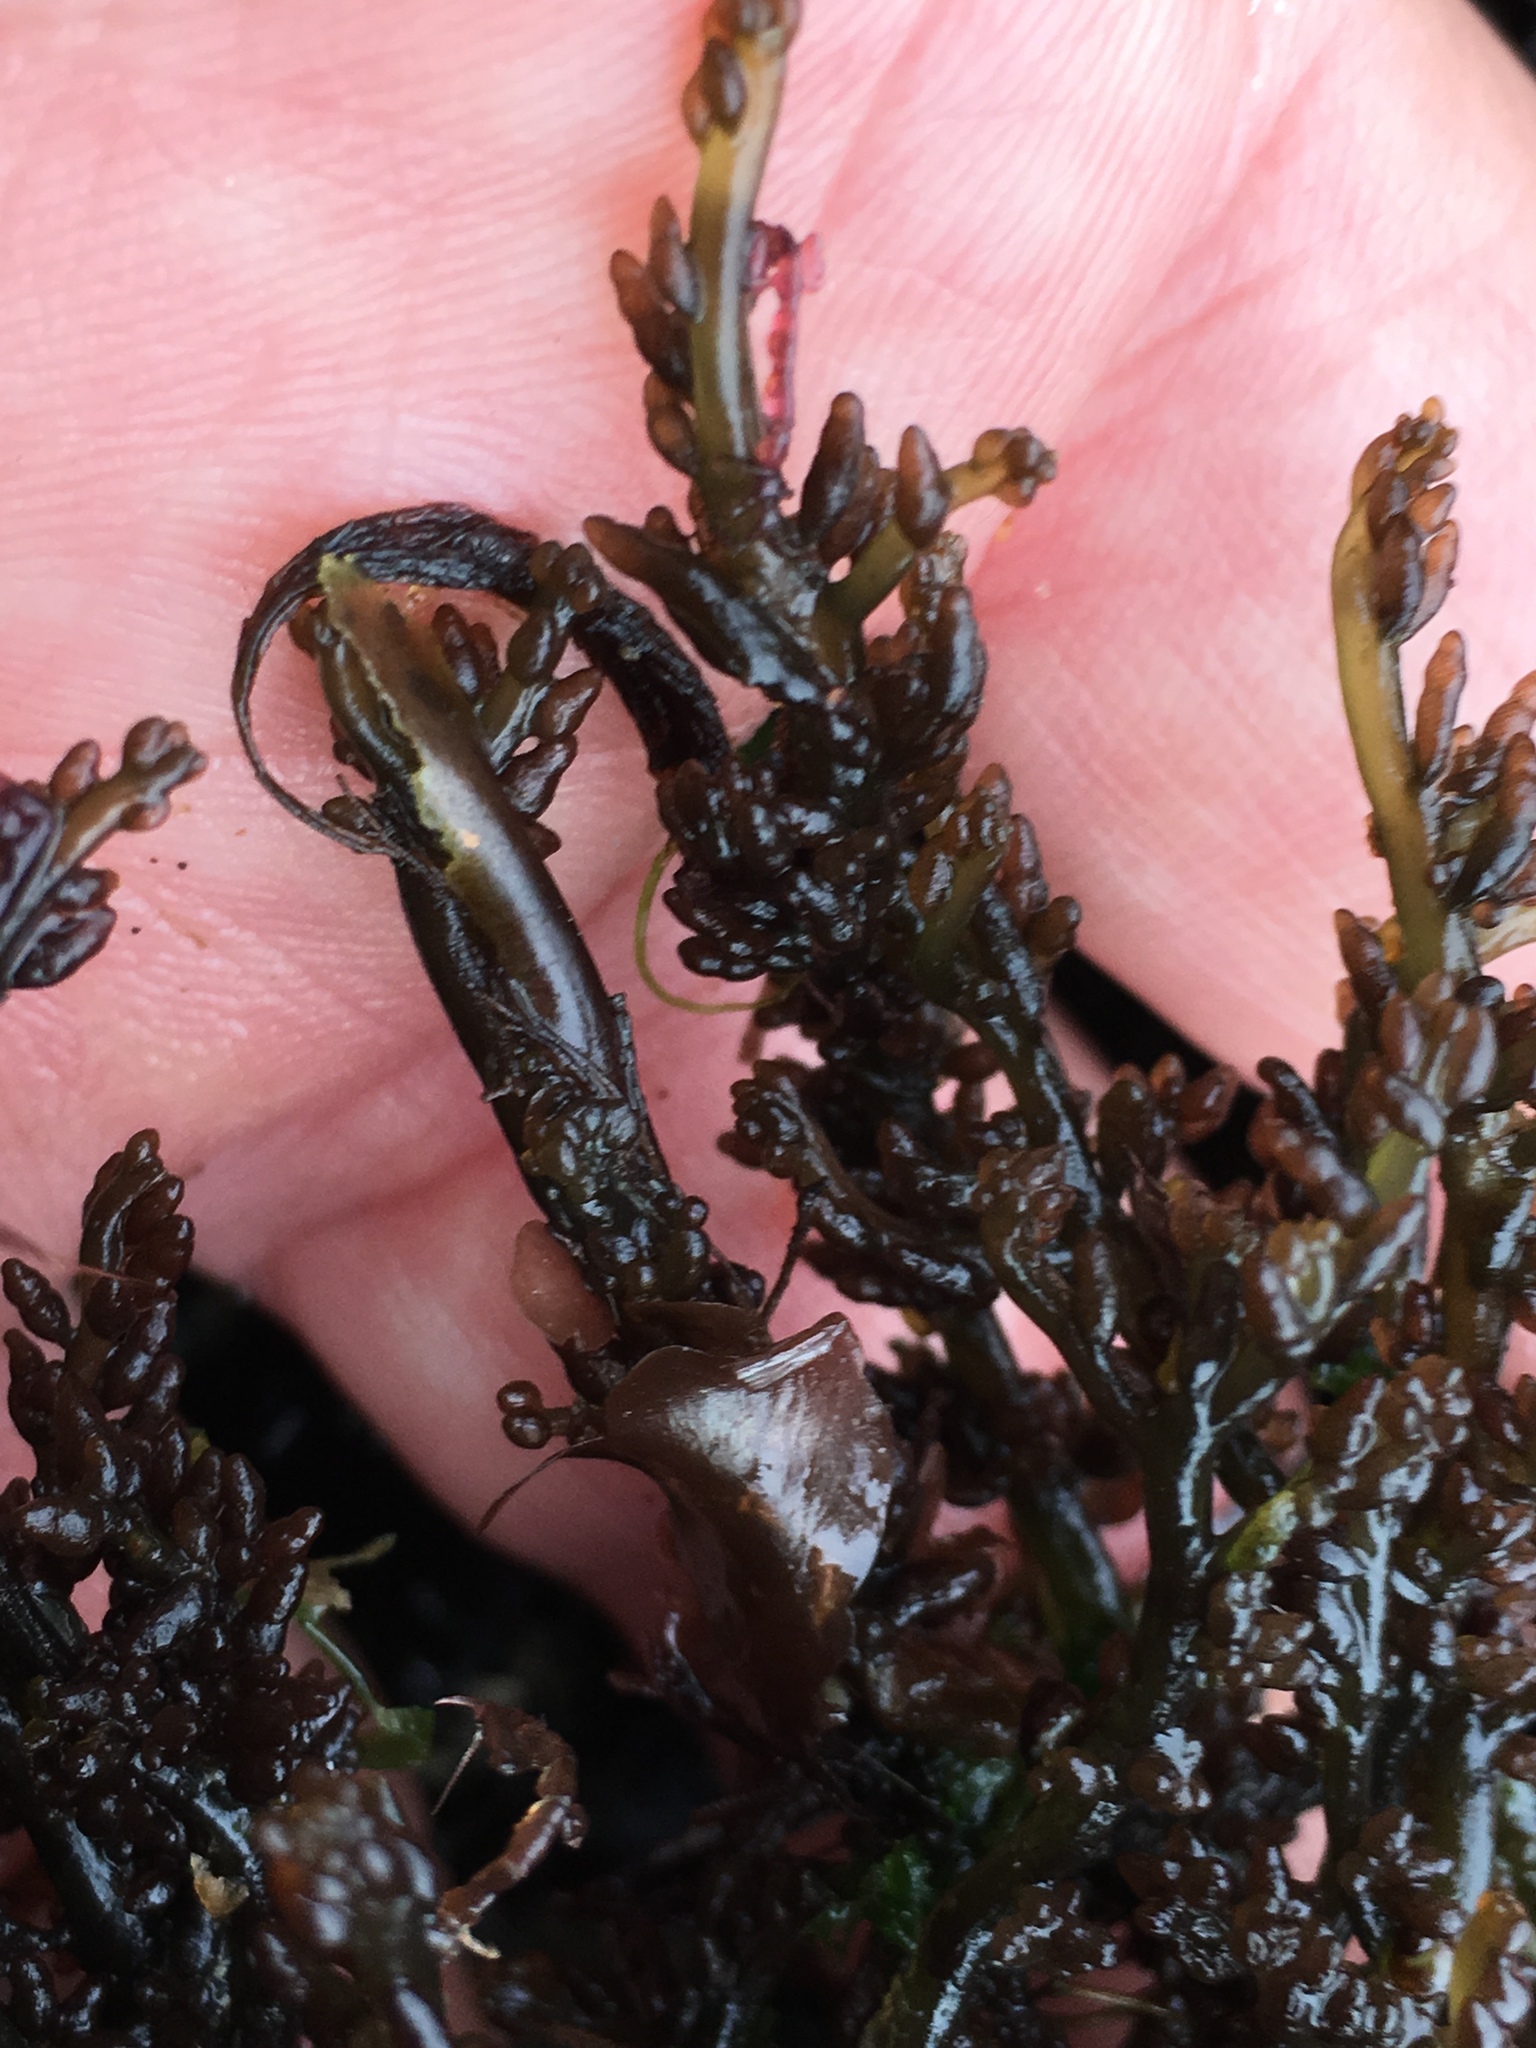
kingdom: Plantae
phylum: Rhodophyta
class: Florideophyceae
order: Rhodymeniales
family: Champiaceae
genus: Neogastroclonium
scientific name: Neogastroclonium subarticulatum
